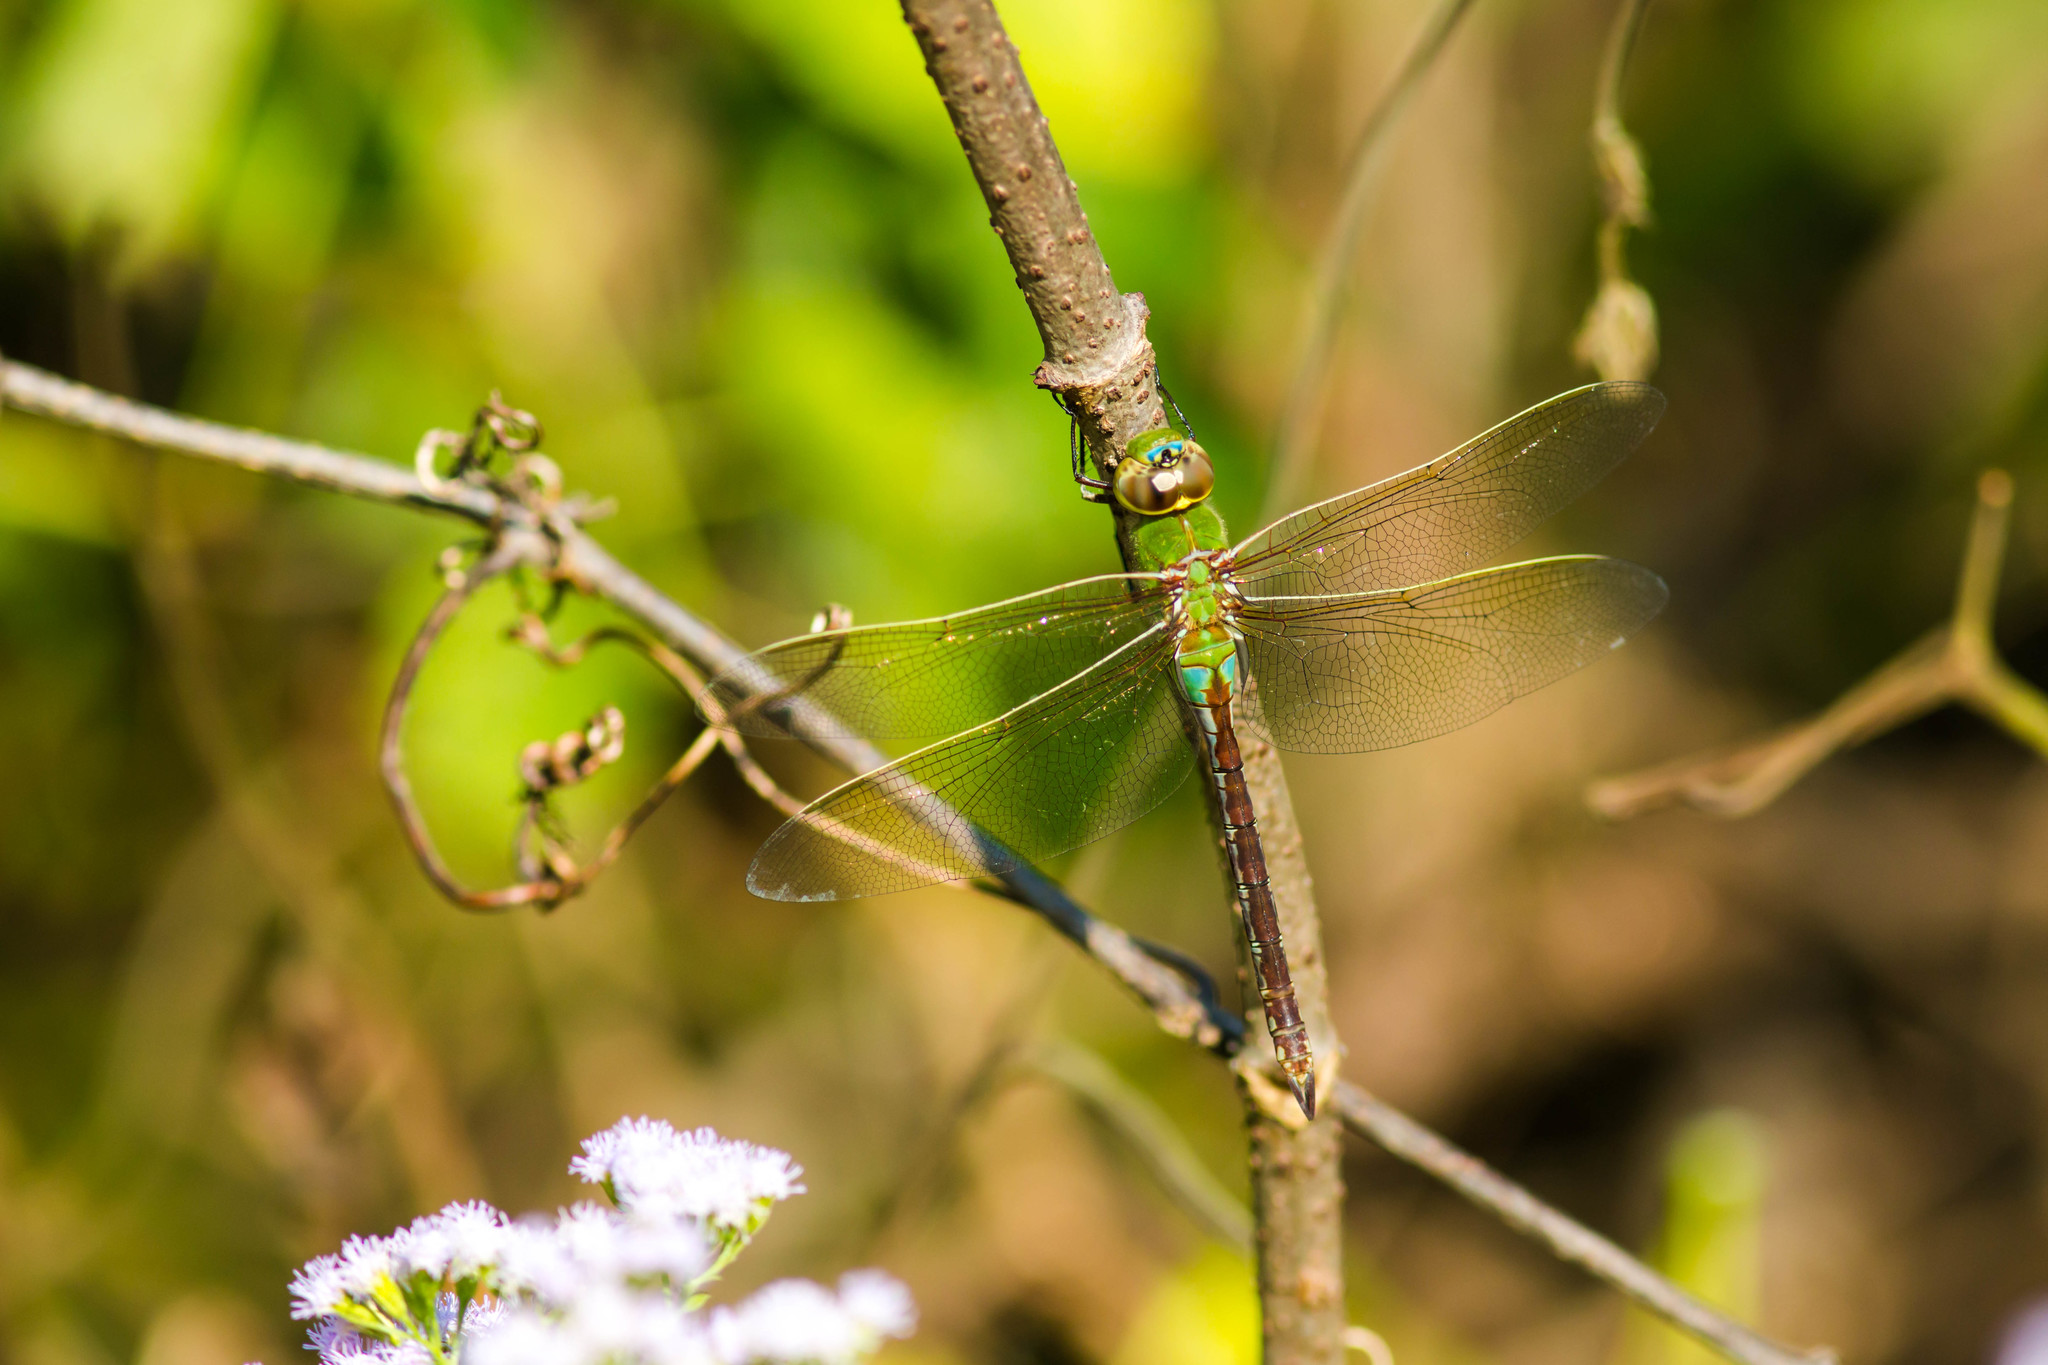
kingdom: Animalia
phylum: Arthropoda
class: Insecta
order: Odonata
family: Aeshnidae
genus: Anax
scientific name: Anax junius
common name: Common green darner
